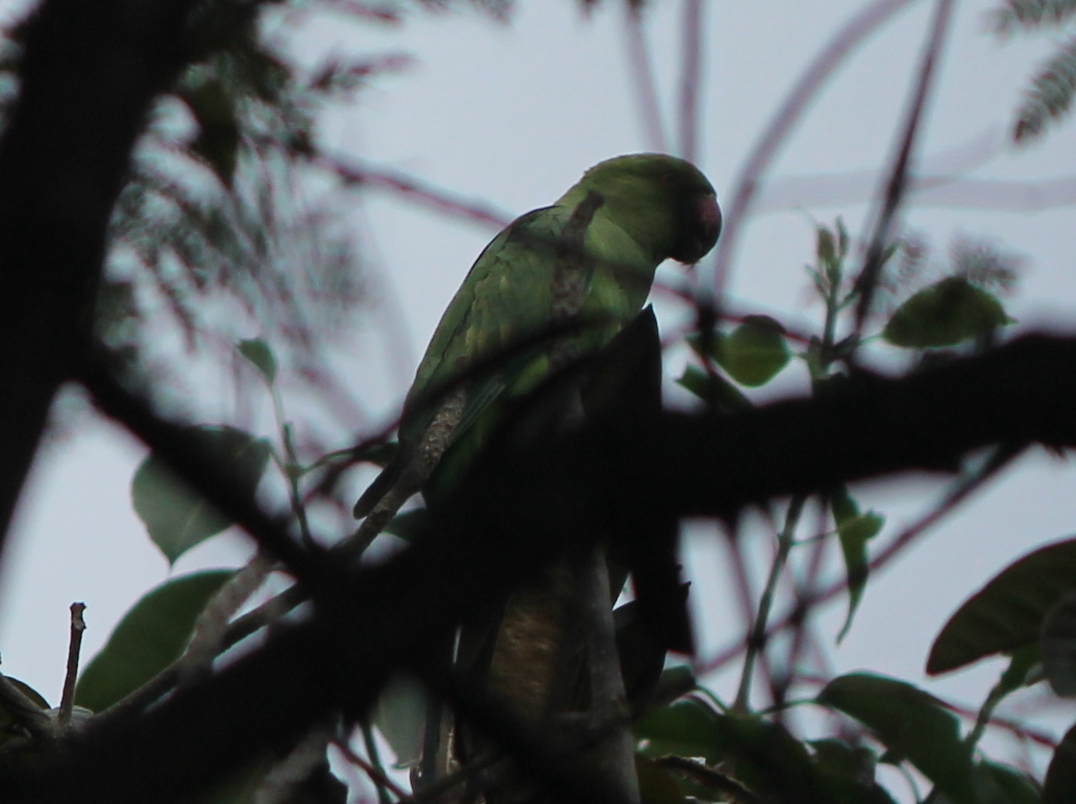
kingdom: Animalia
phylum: Chordata
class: Aves
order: Psittaciformes
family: Psittacidae
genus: Psittacula
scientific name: Psittacula krameri
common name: Rose-ringed parakeet
